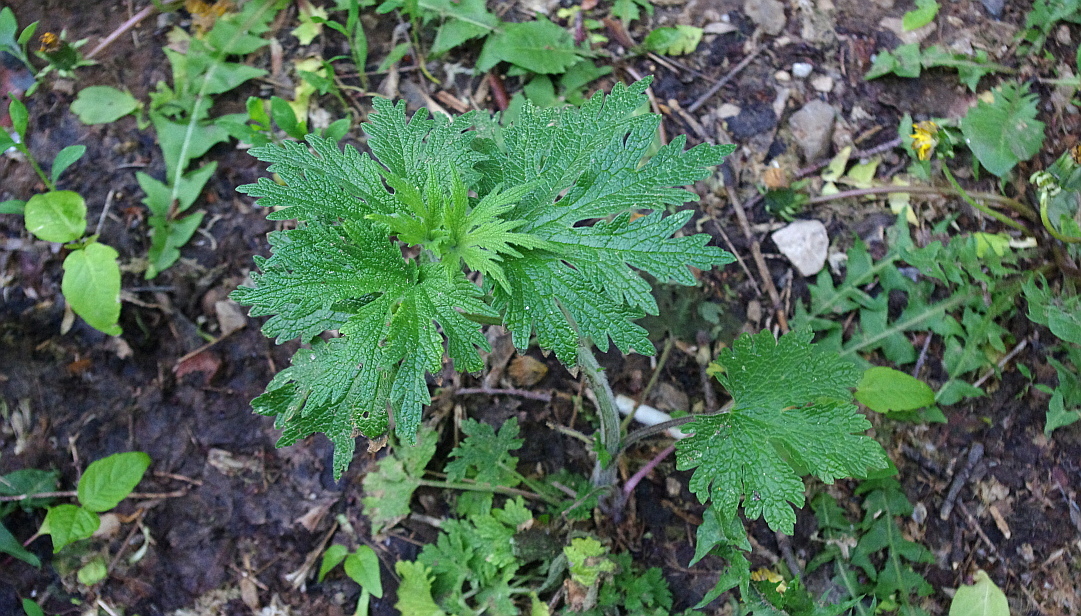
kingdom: Plantae
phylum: Tracheophyta
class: Magnoliopsida
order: Lamiales
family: Lamiaceae
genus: Leonurus
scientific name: Leonurus quinquelobatus
